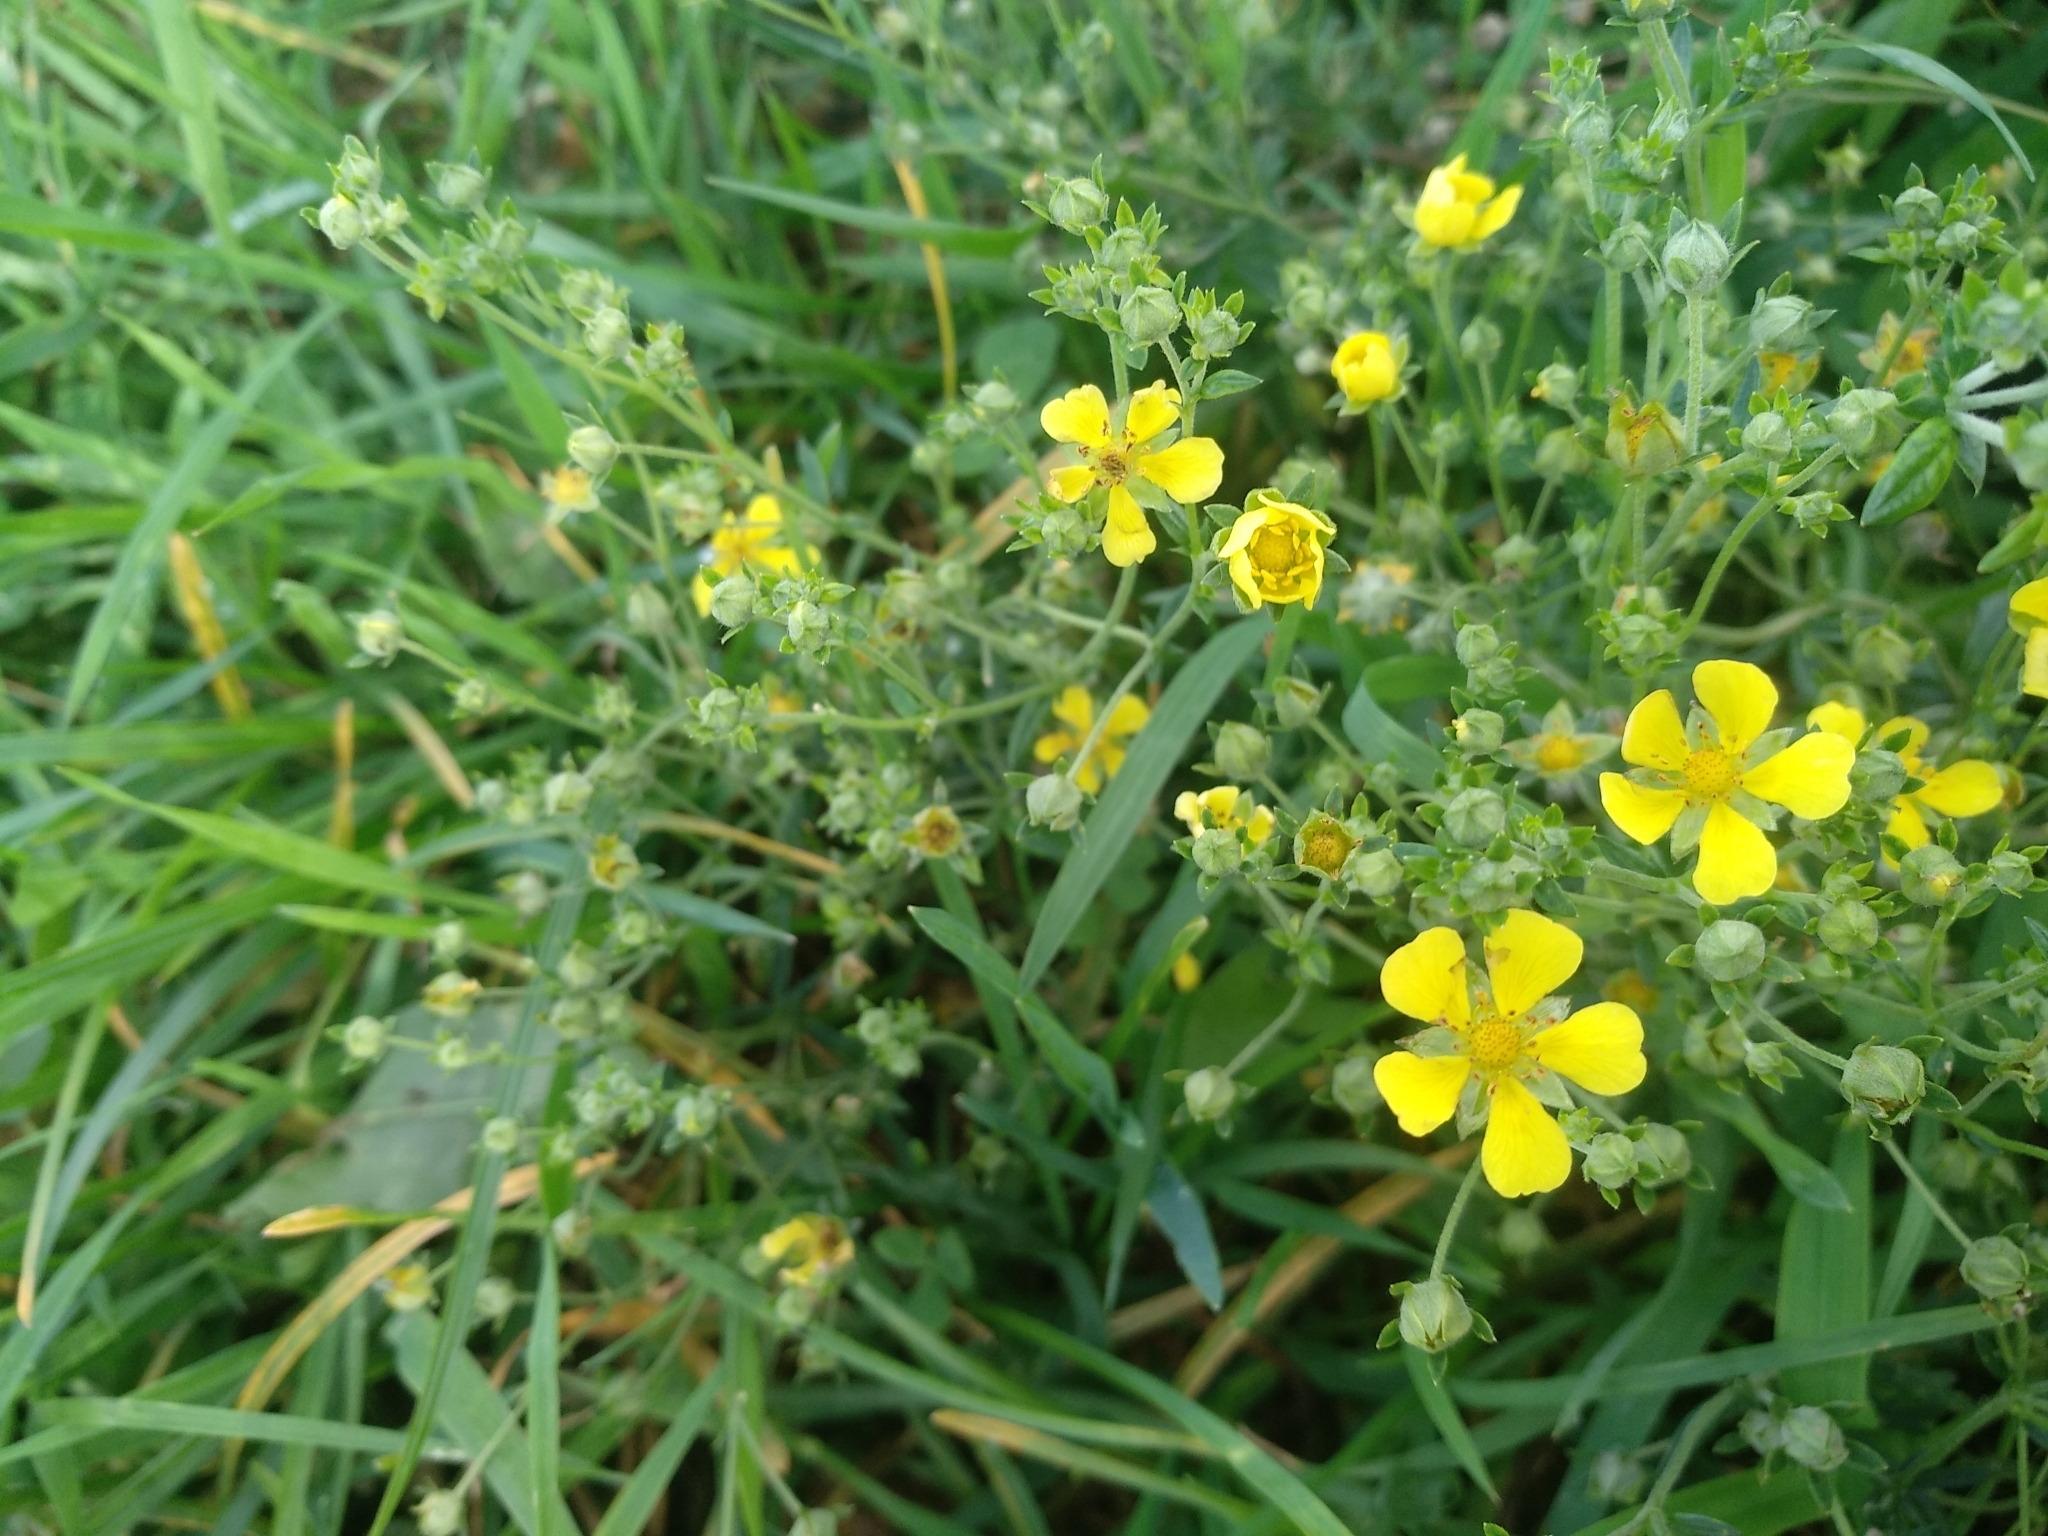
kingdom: Plantae
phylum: Tracheophyta
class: Magnoliopsida
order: Rosales
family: Rosaceae
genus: Potentilla
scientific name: Potentilla argentea
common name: Hoary cinquefoil
